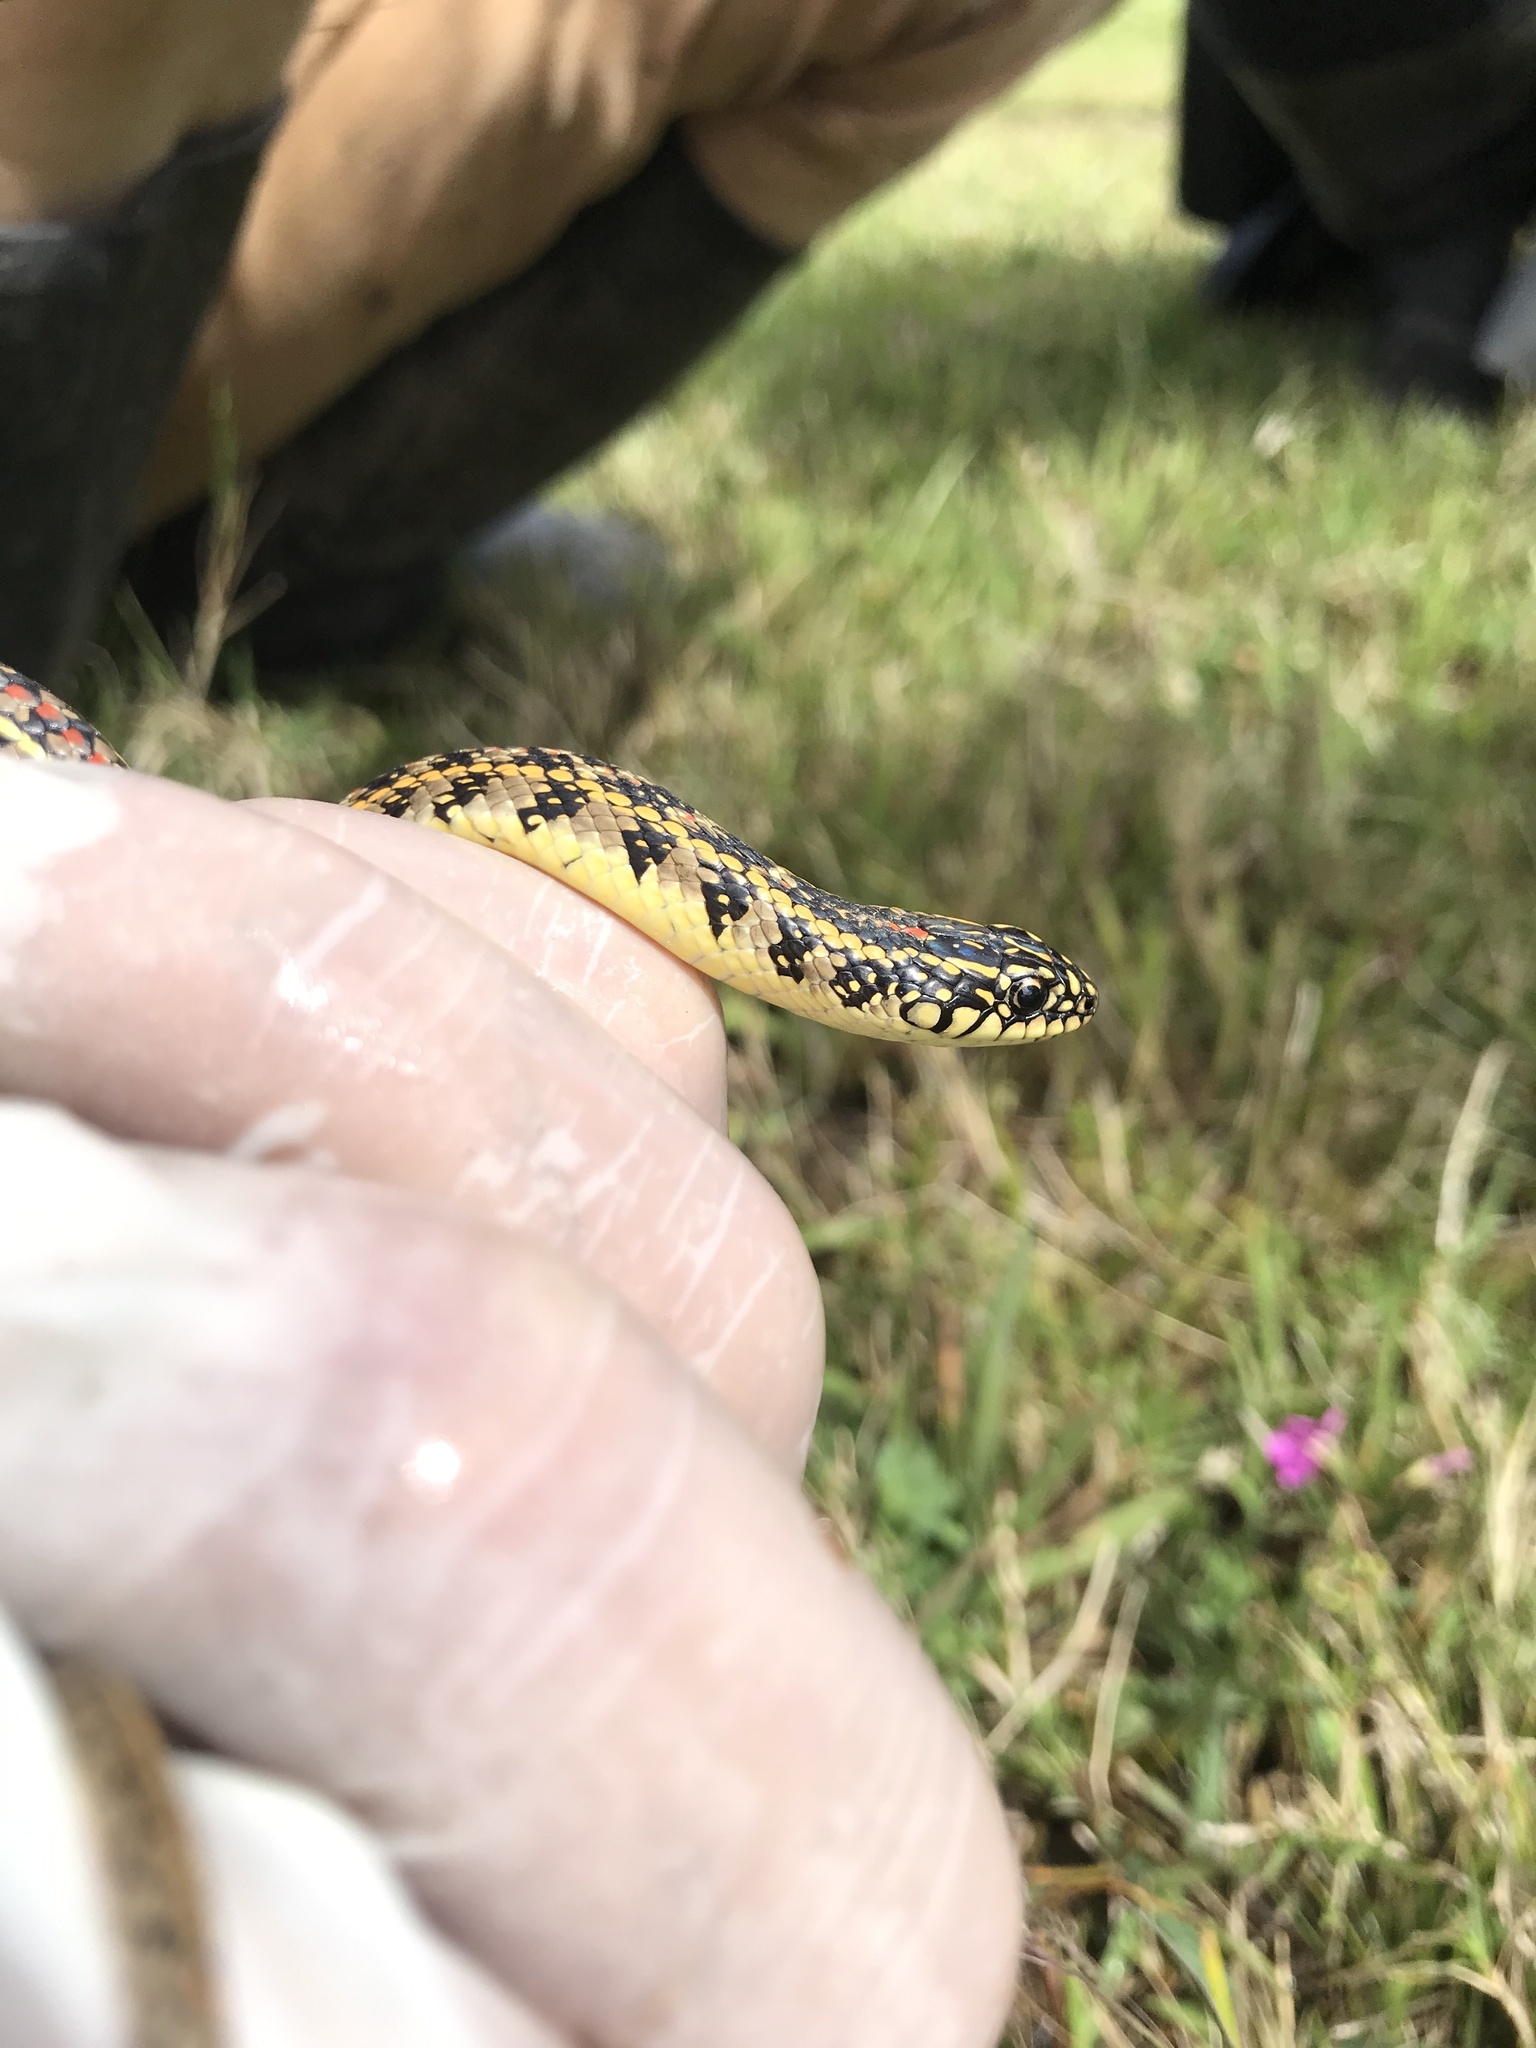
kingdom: Animalia
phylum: Chordata
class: Squamata
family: Colubridae
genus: Lygophis
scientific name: Lygophis anomalus
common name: English common name not available
